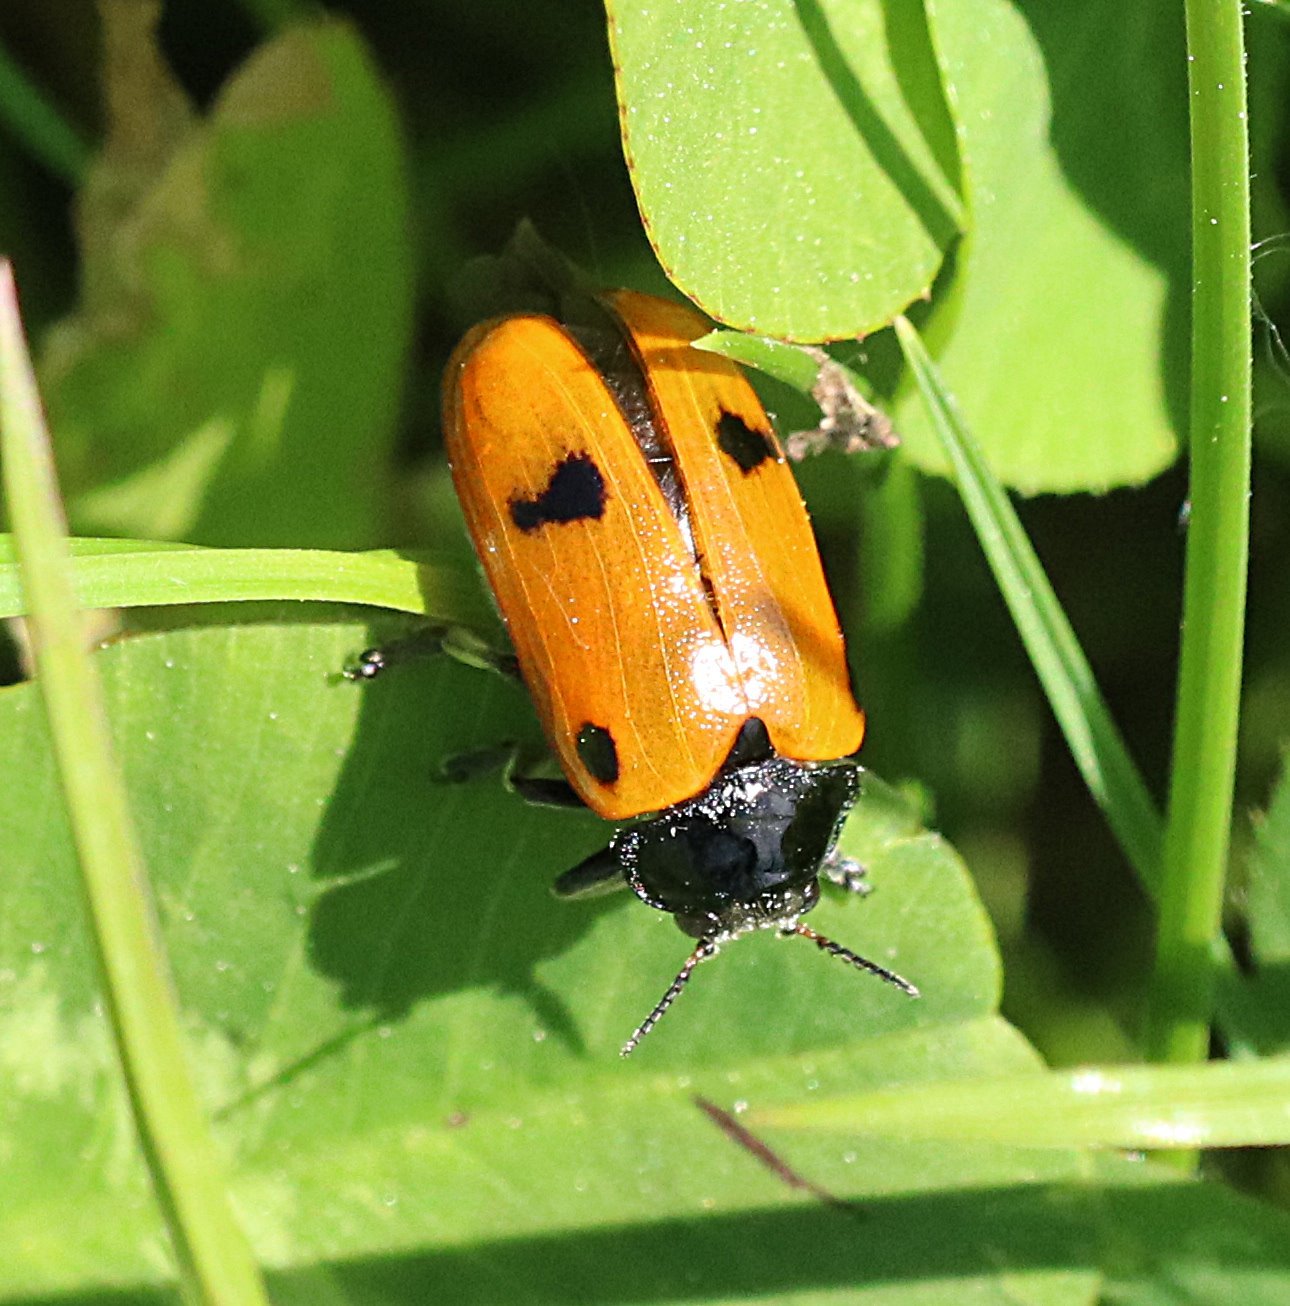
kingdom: Animalia
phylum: Arthropoda
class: Insecta
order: Coleoptera
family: Chrysomelidae
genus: Clytra
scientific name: Clytra quadripunctata
